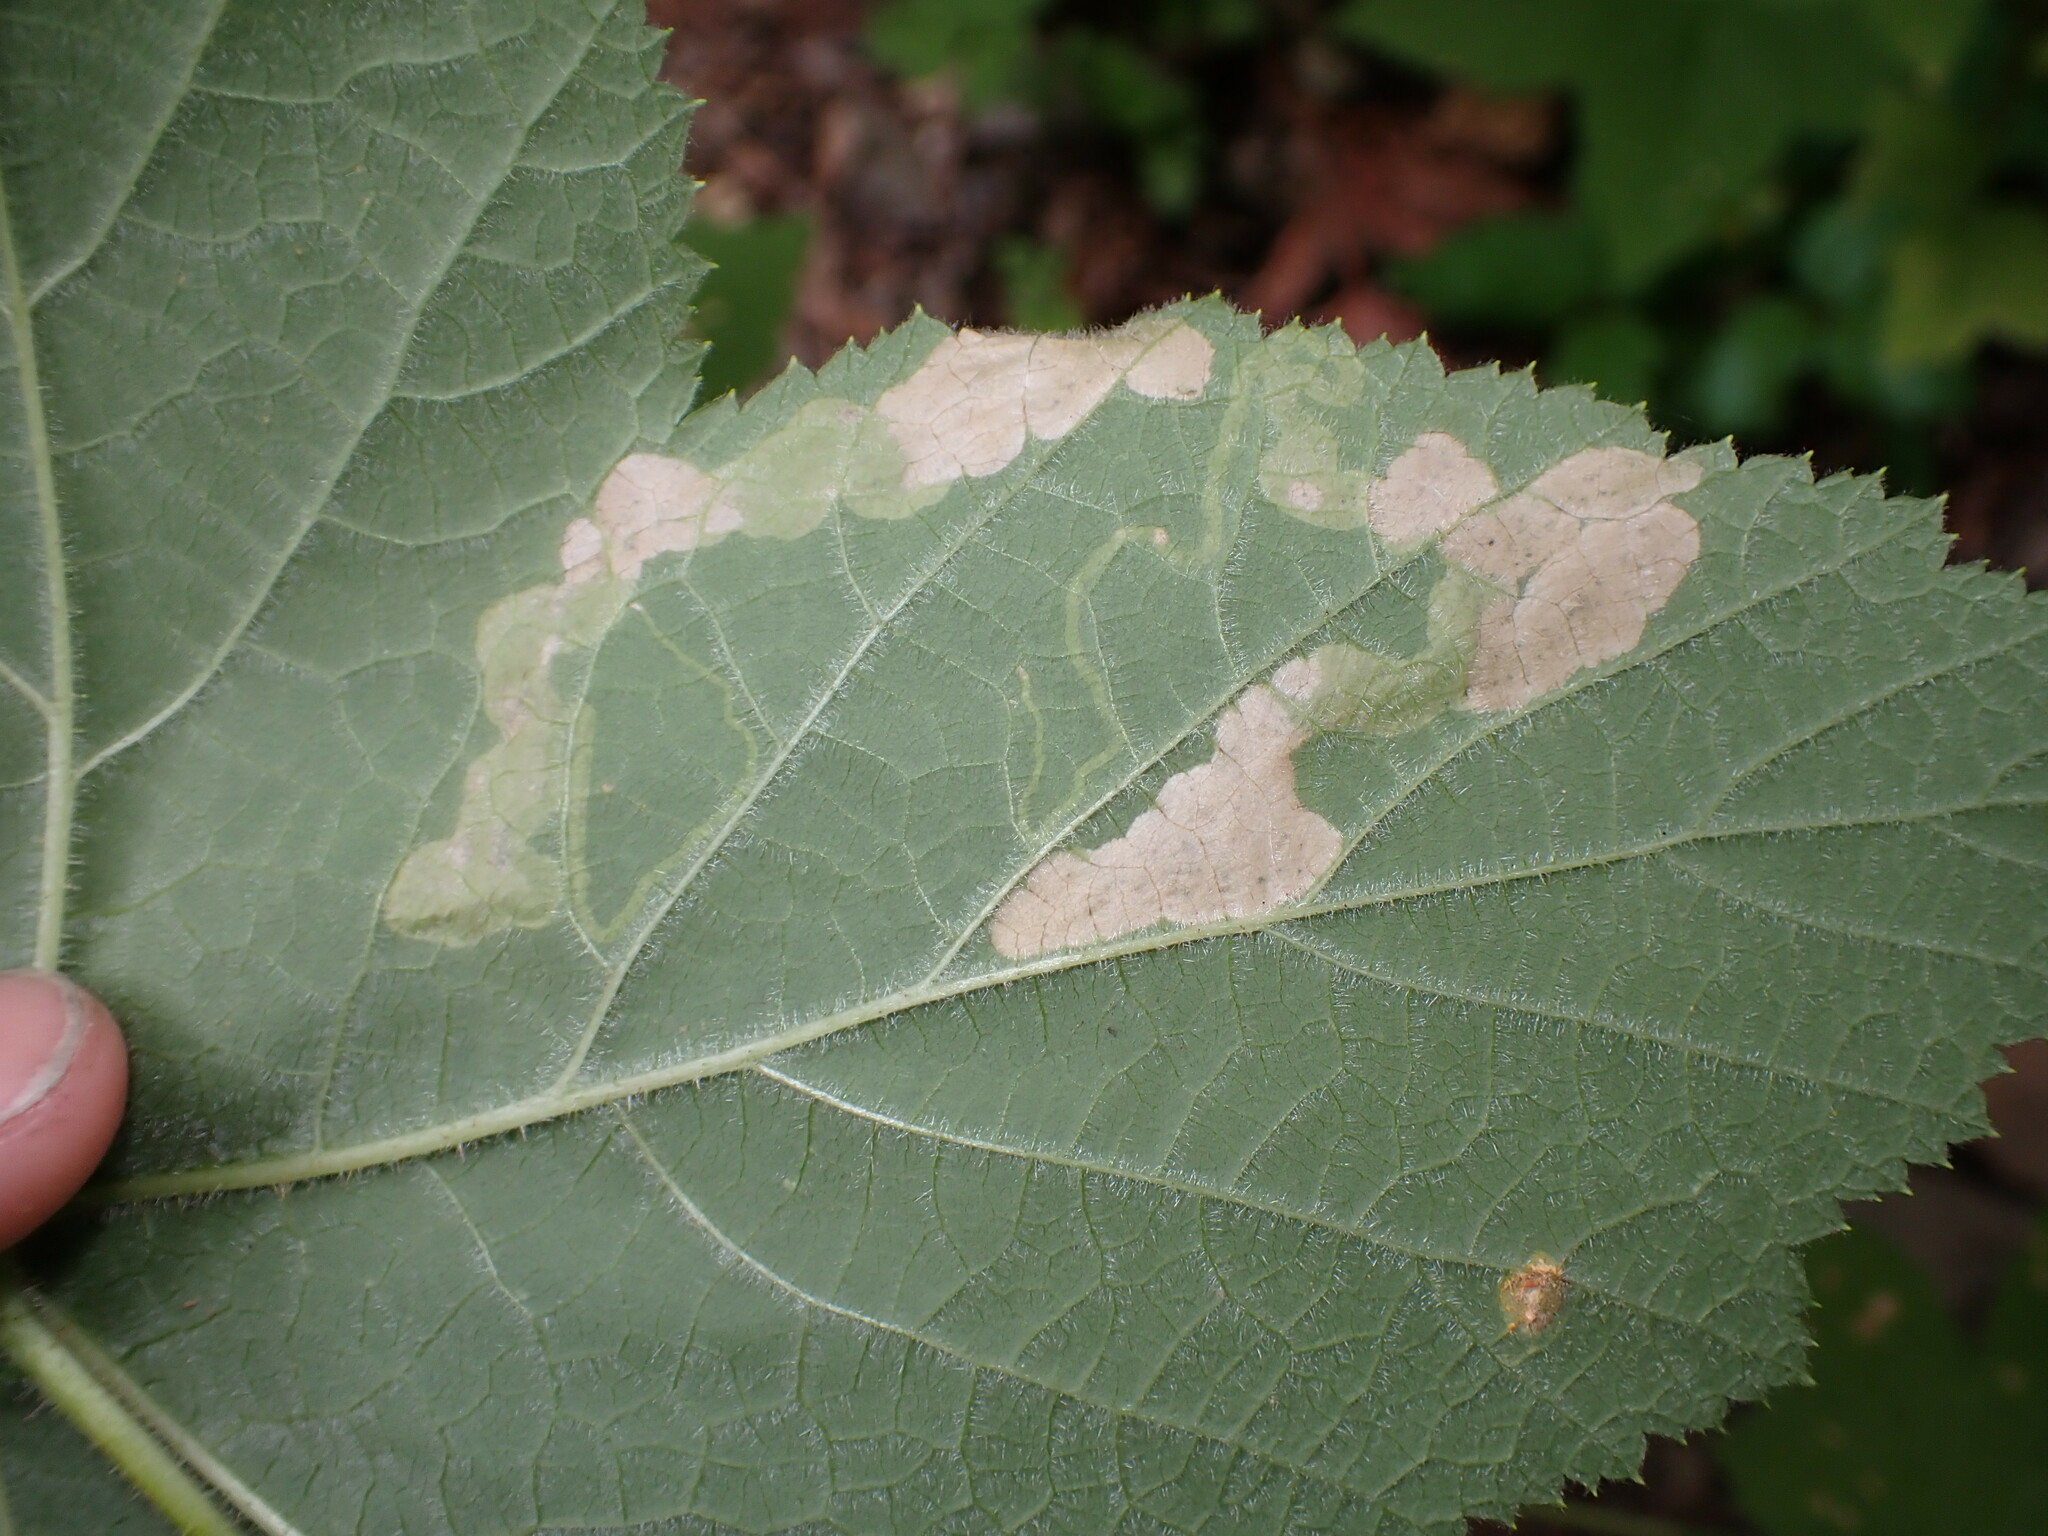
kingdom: Animalia
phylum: Arthropoda
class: Insecta
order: Diptera
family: Agromyzidae
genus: Agromyza
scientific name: Agromyza vockerothi
